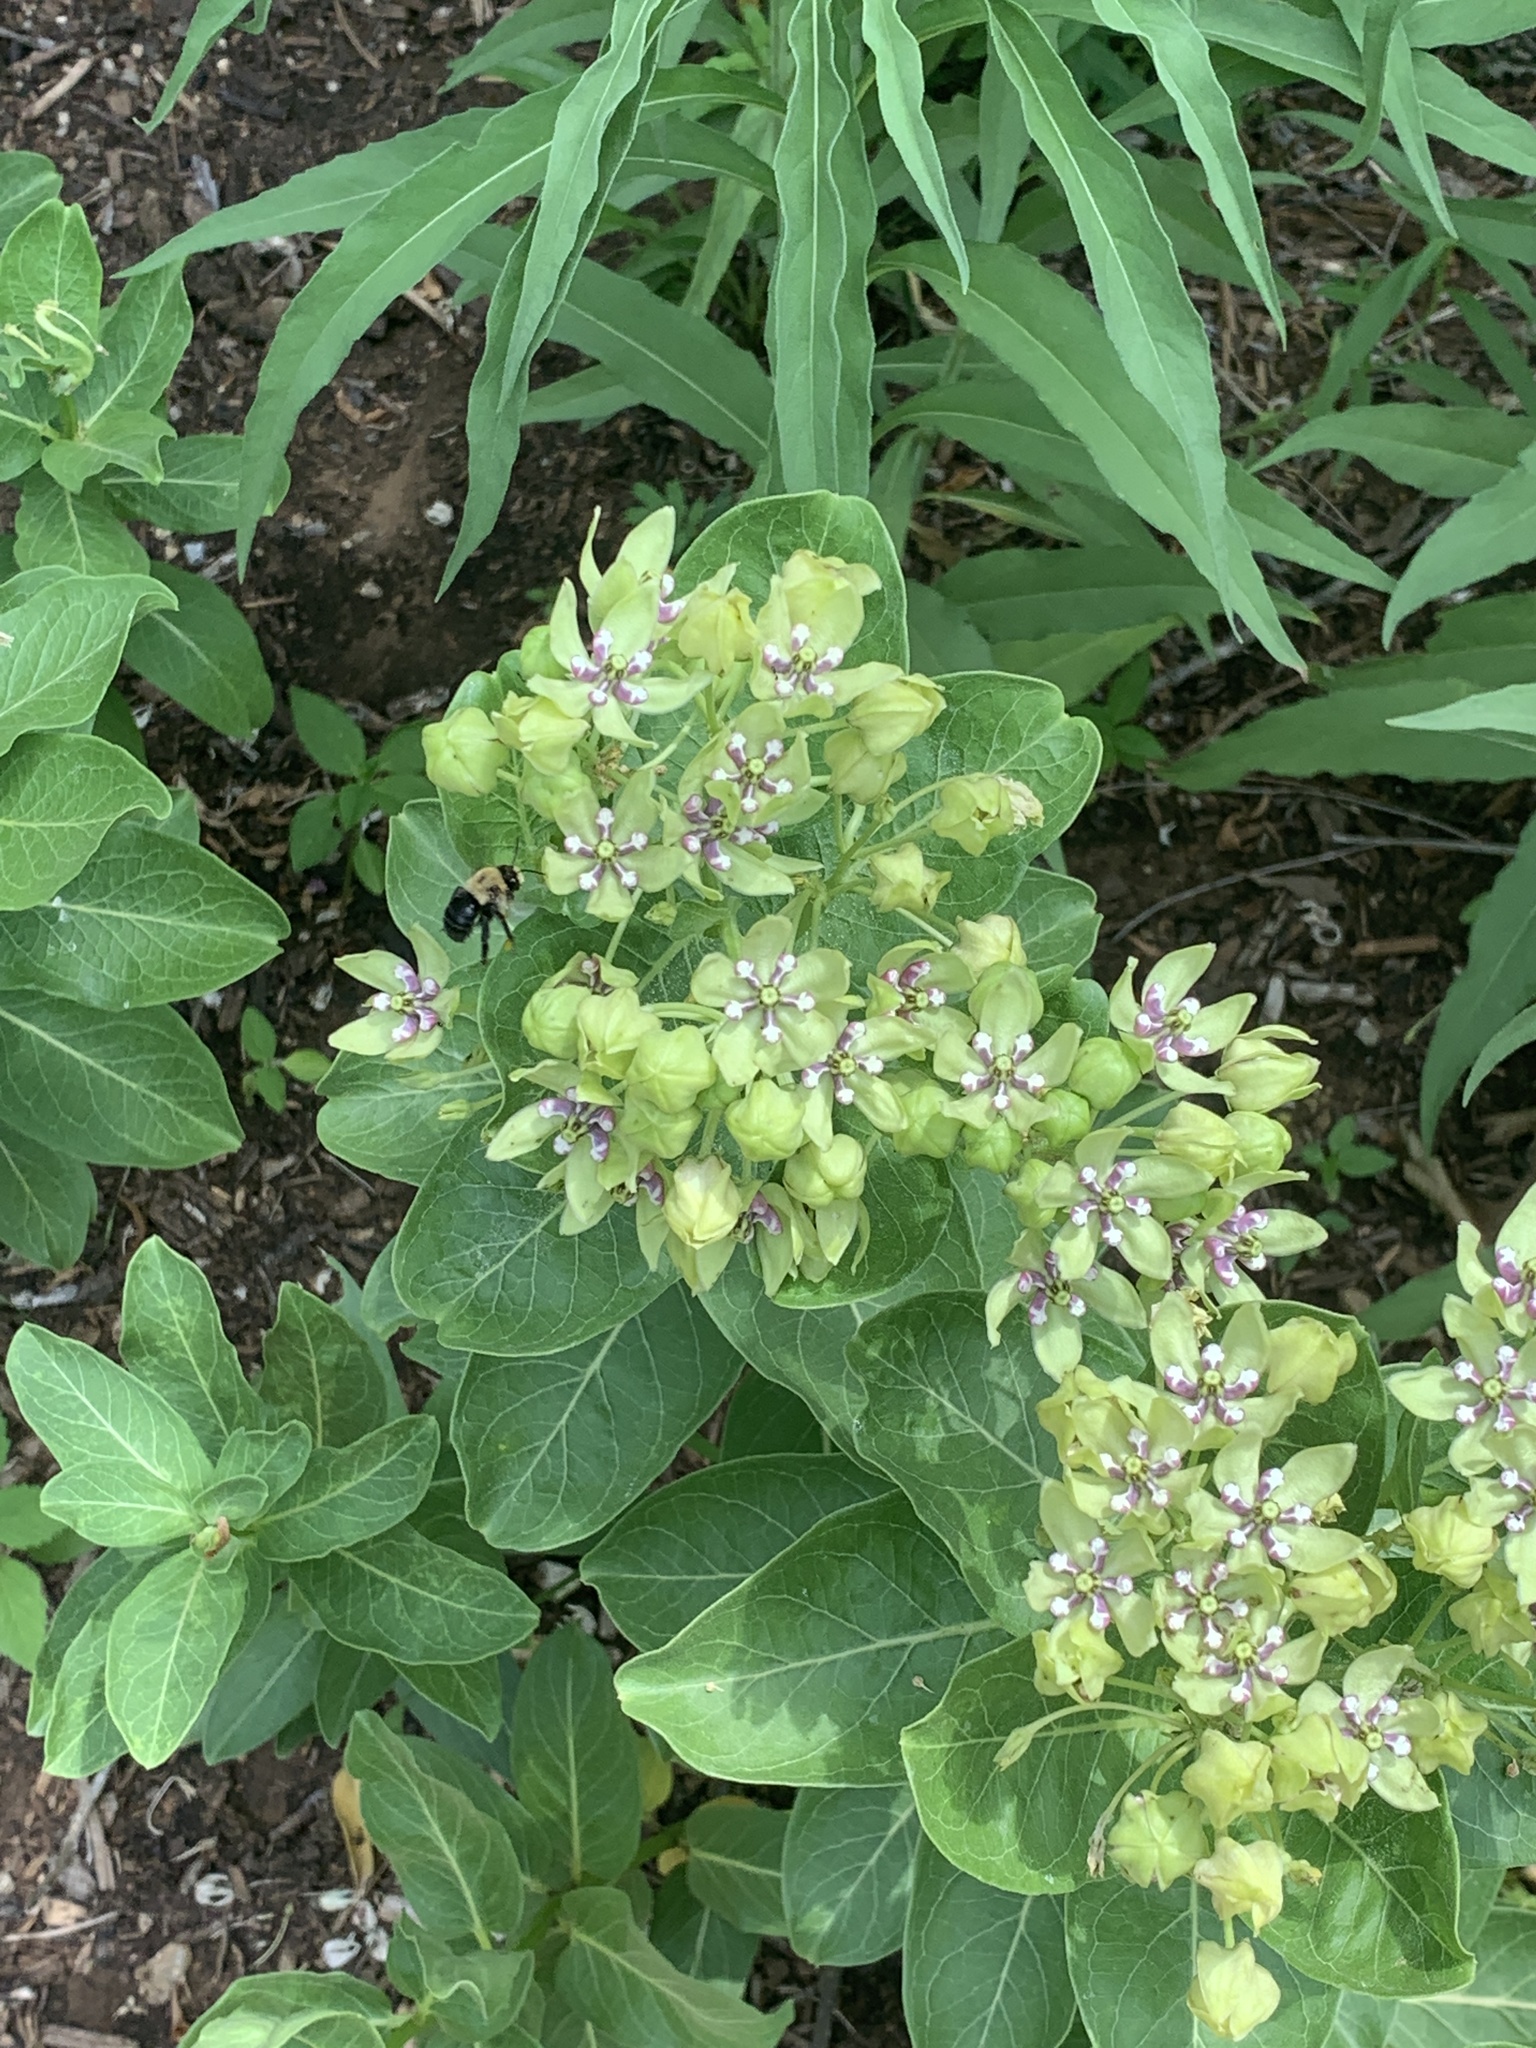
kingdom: Animalia
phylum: Arthropoda
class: Insecta
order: Hymenoptera
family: Apidae
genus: Anthophora
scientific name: Anthophora abrupta
